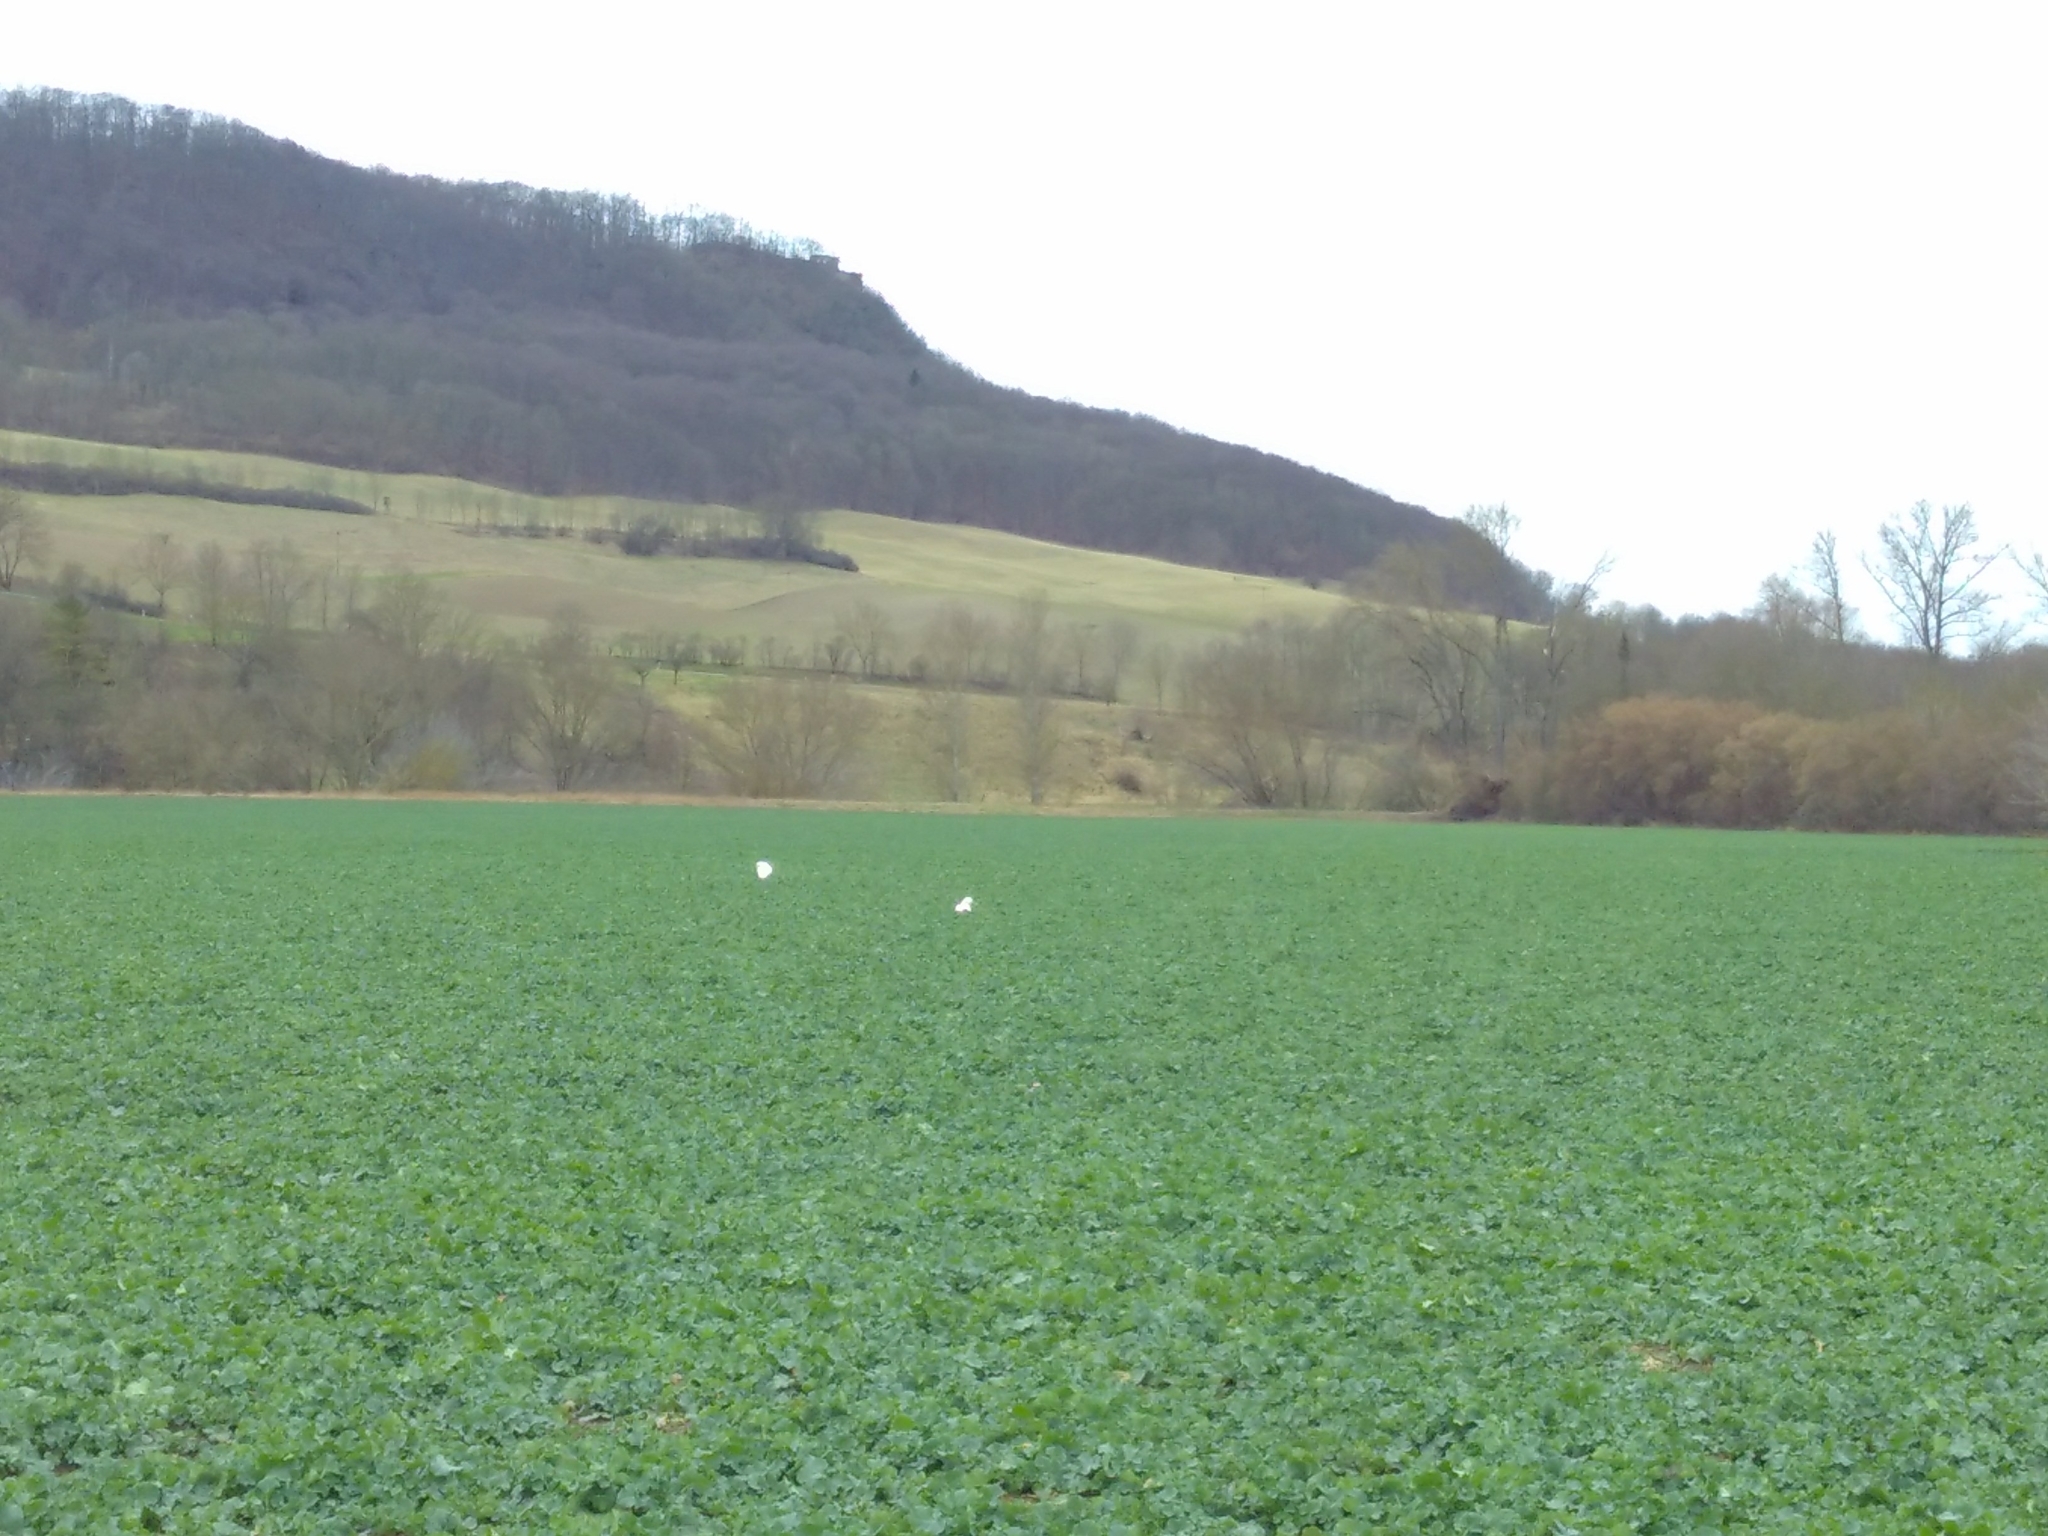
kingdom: Animalia
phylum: Chordata
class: Aves
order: Anseriformes
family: Anatidae
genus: Cygnus
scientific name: Cygnus olor
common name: Mute swan
